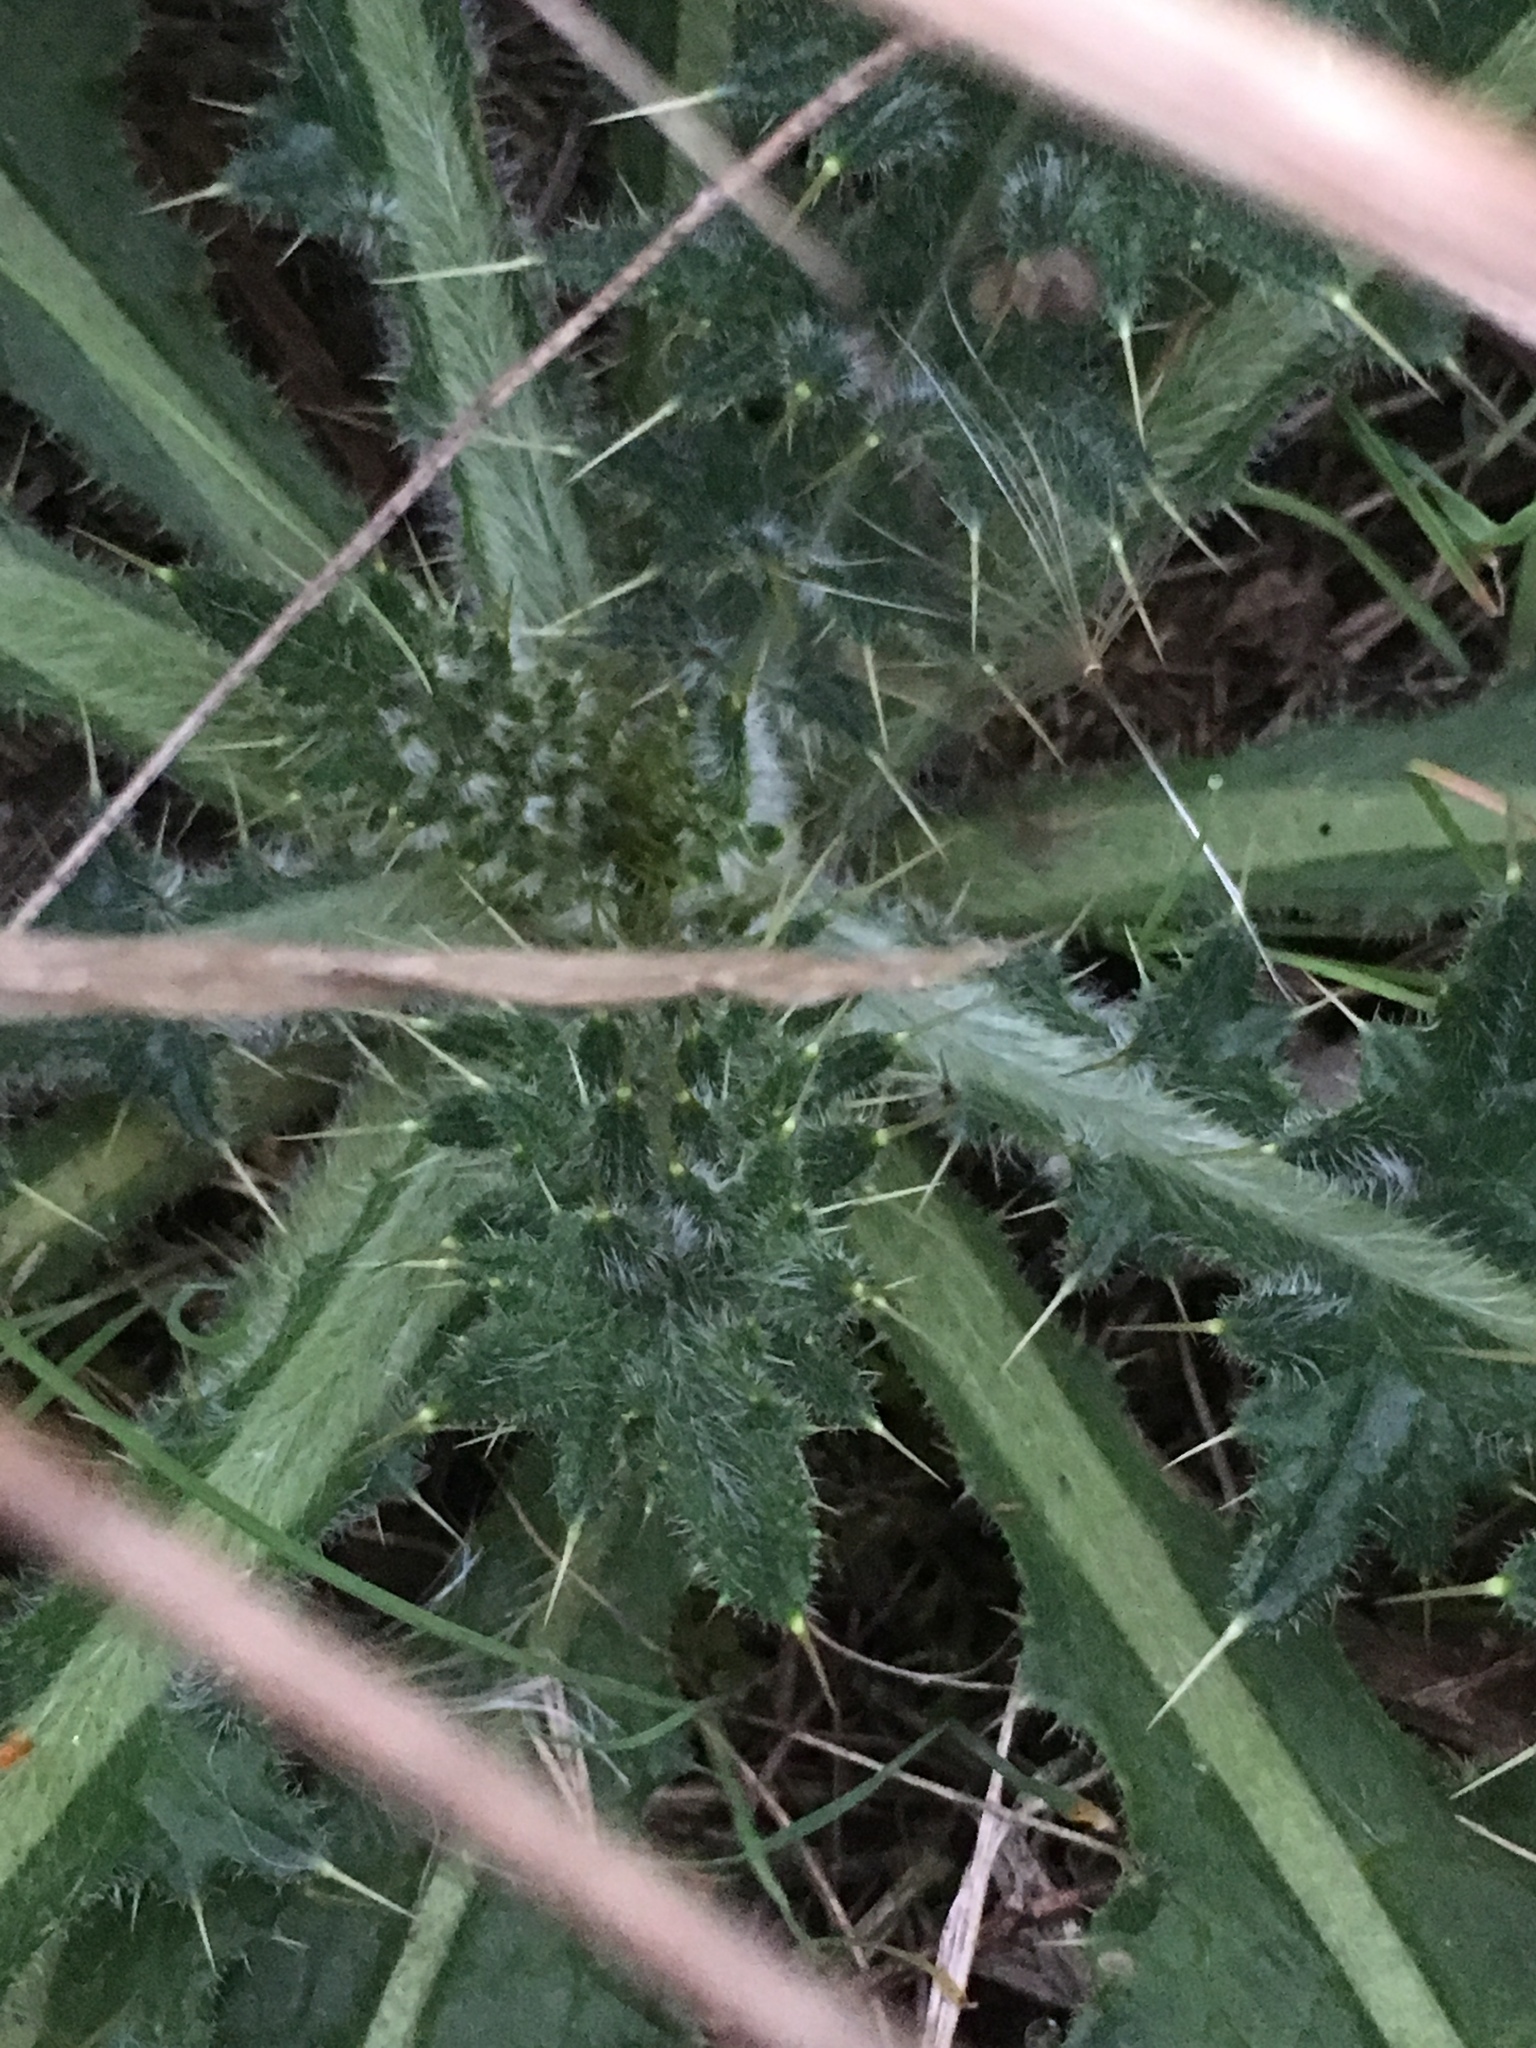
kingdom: Plantae
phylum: Tracheophyta
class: Magnoliopsida
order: Asterales
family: Asteraceae
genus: Cirsium
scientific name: Cirsium vulgare
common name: Bull thistle
